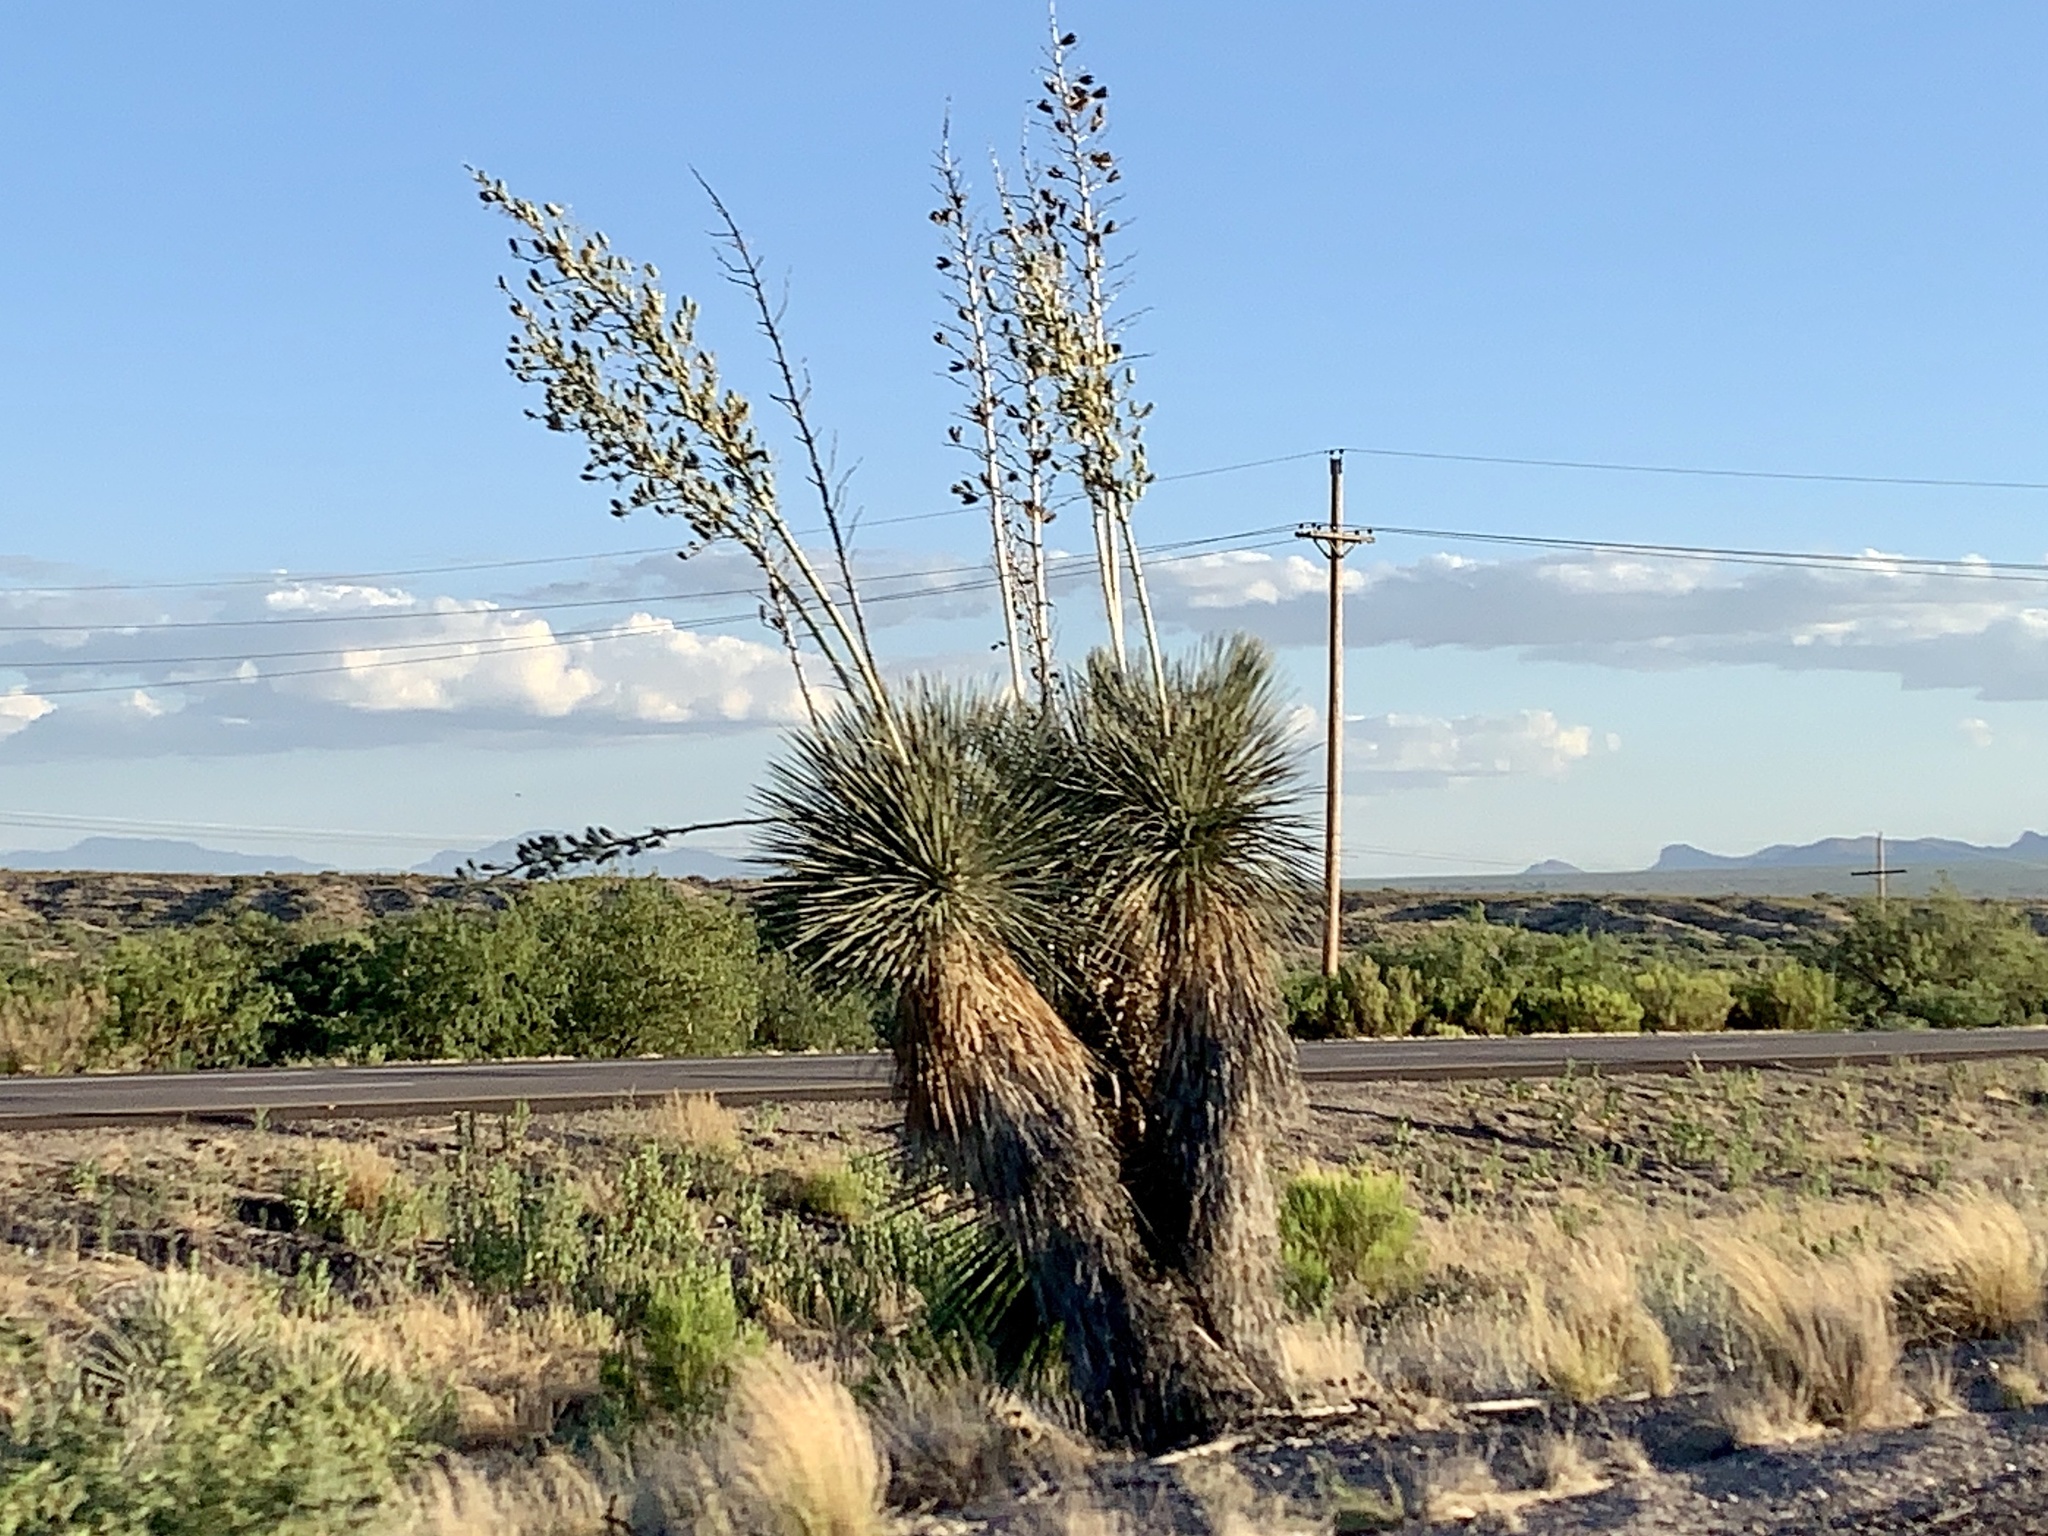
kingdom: Plantae
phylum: Tracheophyta
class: Liliopsida
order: Asparagales
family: Asparagaceae
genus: Yucca
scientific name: Yucca elata
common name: Palmella
